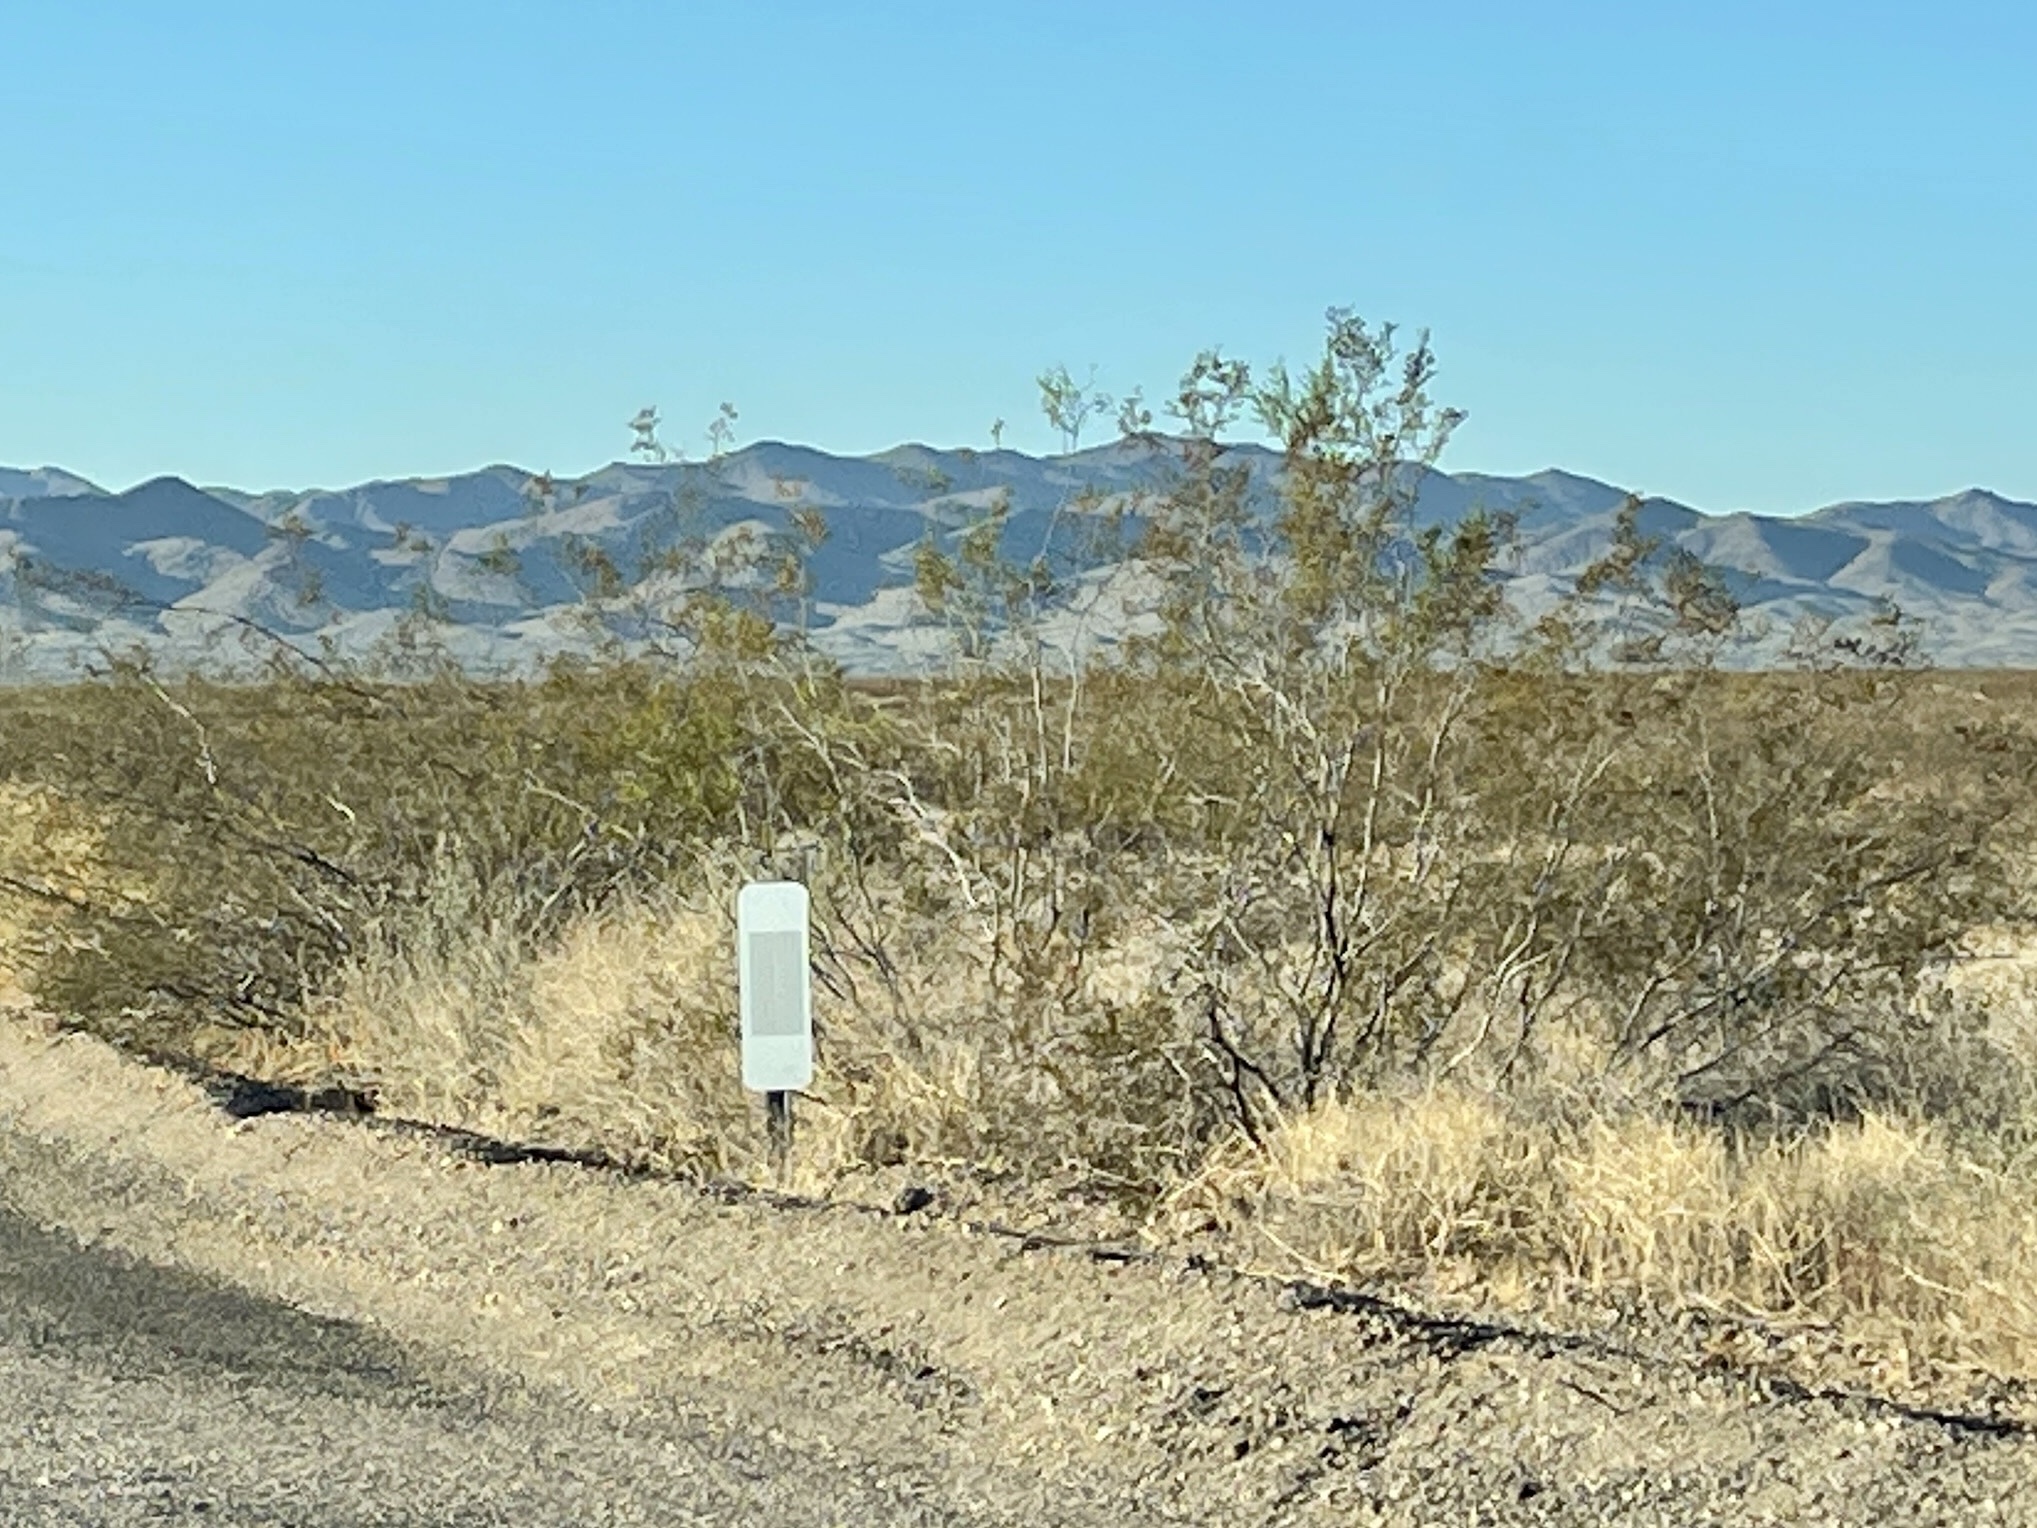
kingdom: Plantae
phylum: Tracheophyta
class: Magnoliopsida
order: Zygophyllales
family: Zygophyllaceae
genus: Larrea
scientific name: Larrea tridentata
